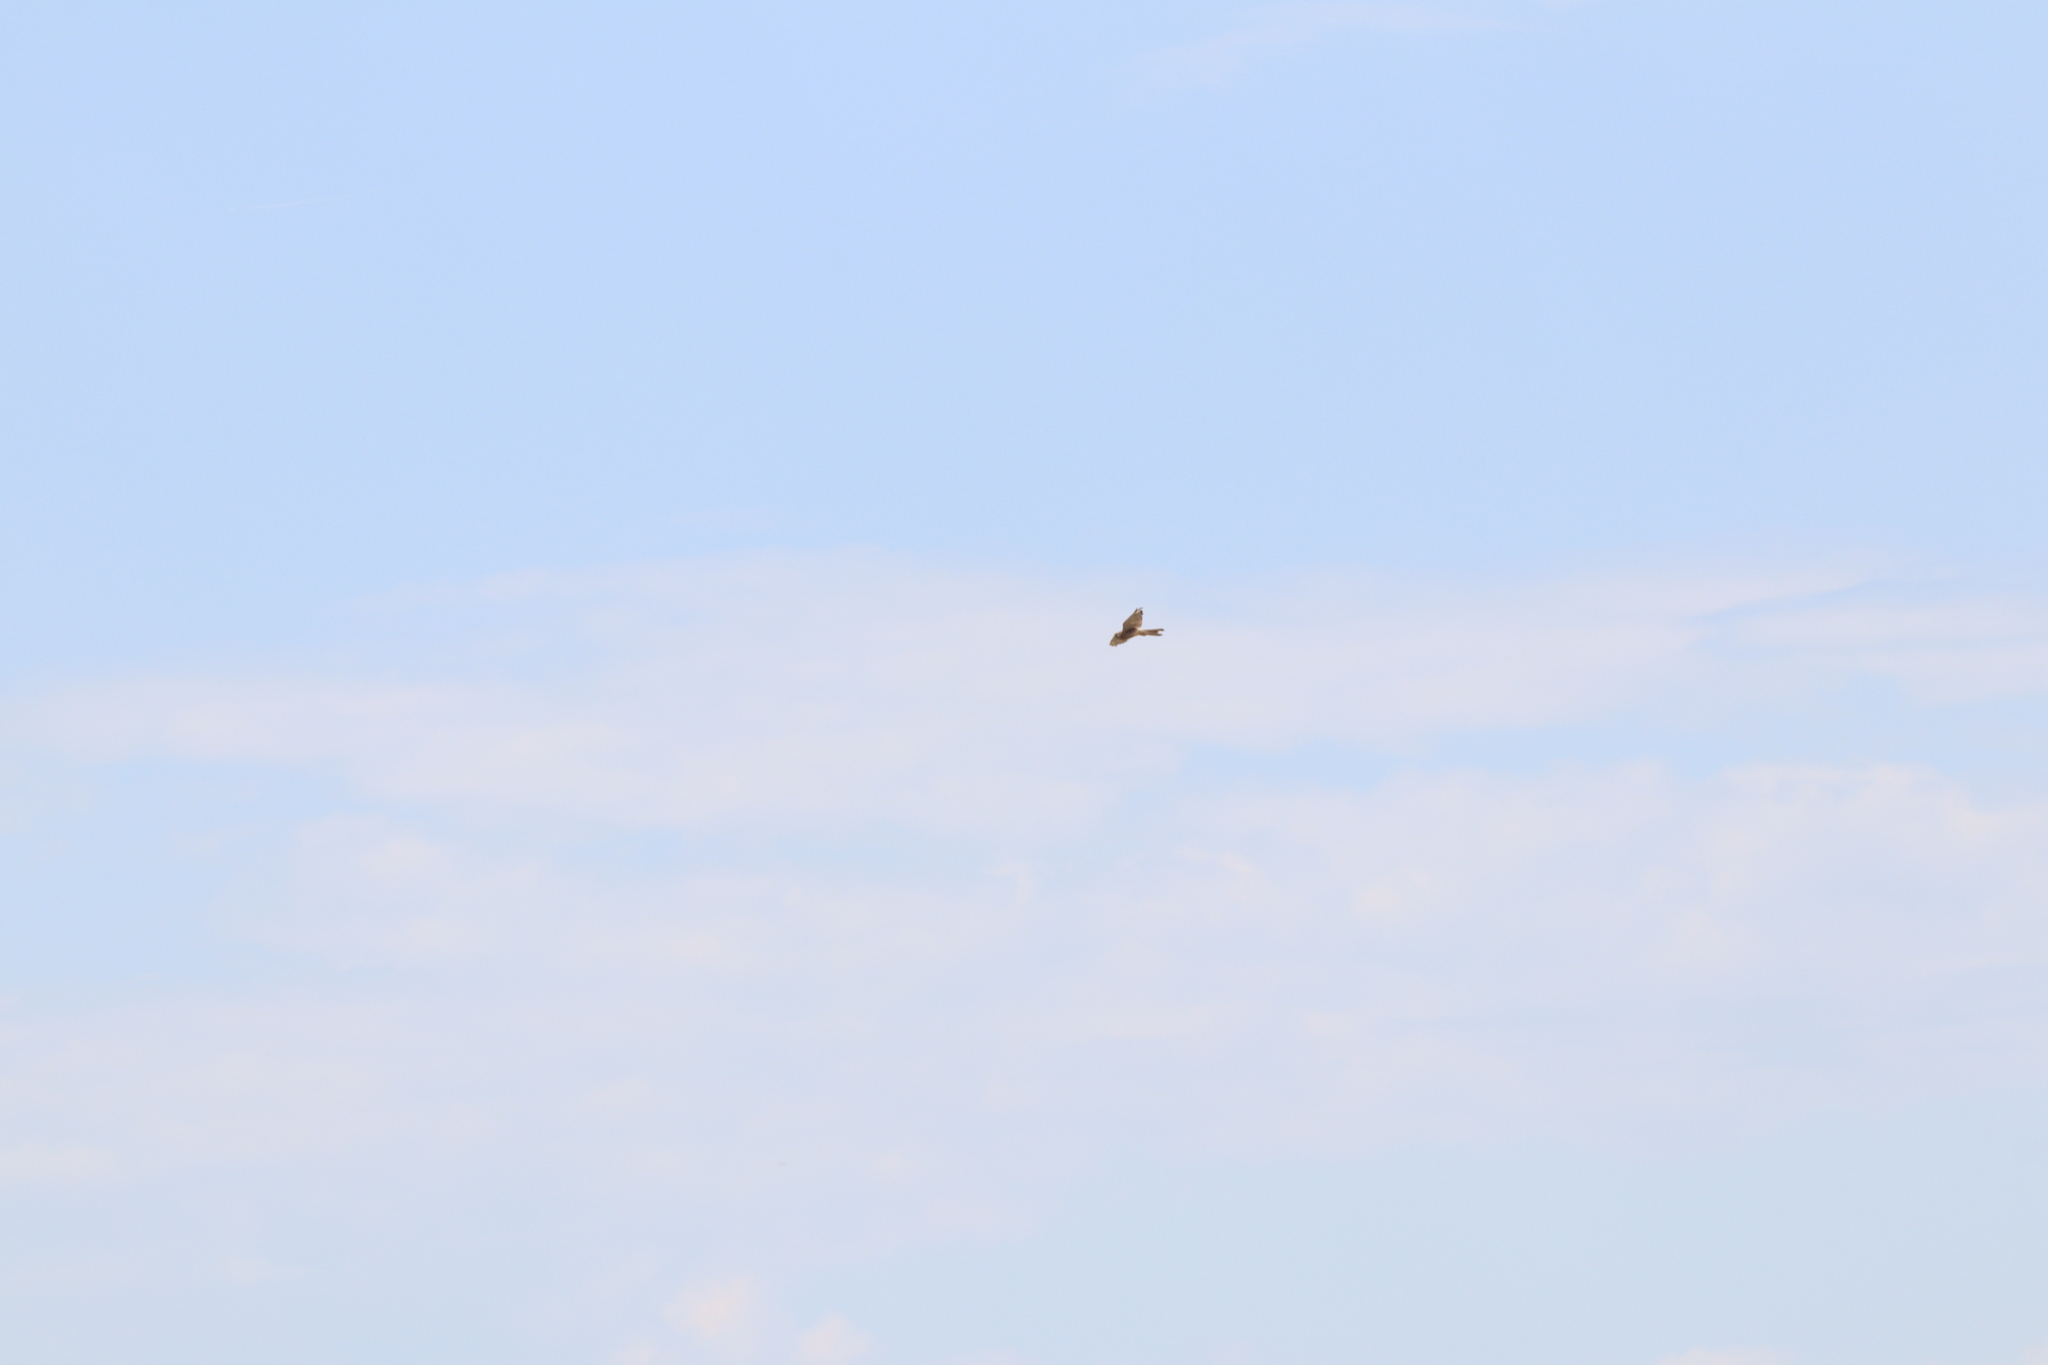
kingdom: Animalia
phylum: Chordata
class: Aves
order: Falconiformes
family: Falconidae
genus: Falco
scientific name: Falco tinnunculus
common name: Common kestrel
